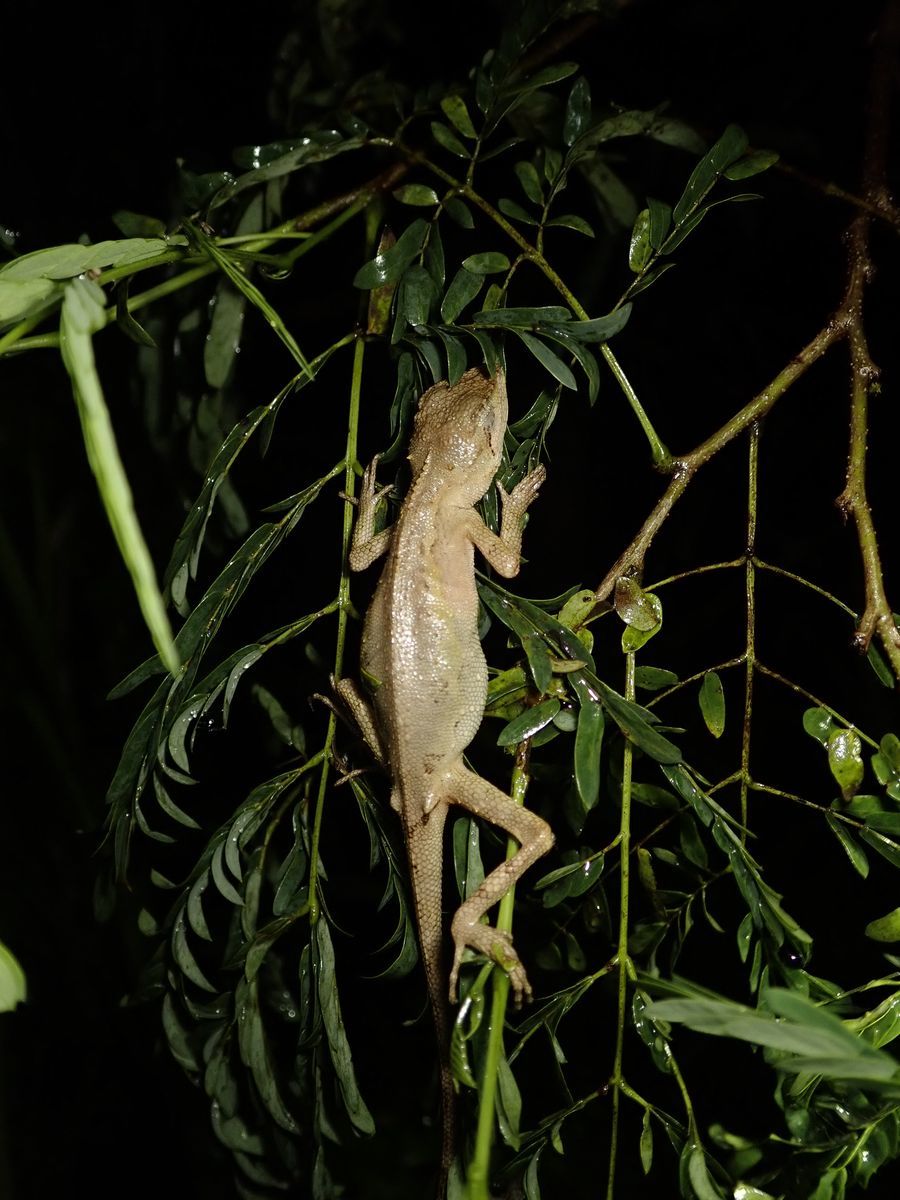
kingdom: Animalia
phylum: Chordata
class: Squamata
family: Agamidae
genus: Diploderma
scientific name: Diploderma swinhonis
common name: Taiwan japalure
